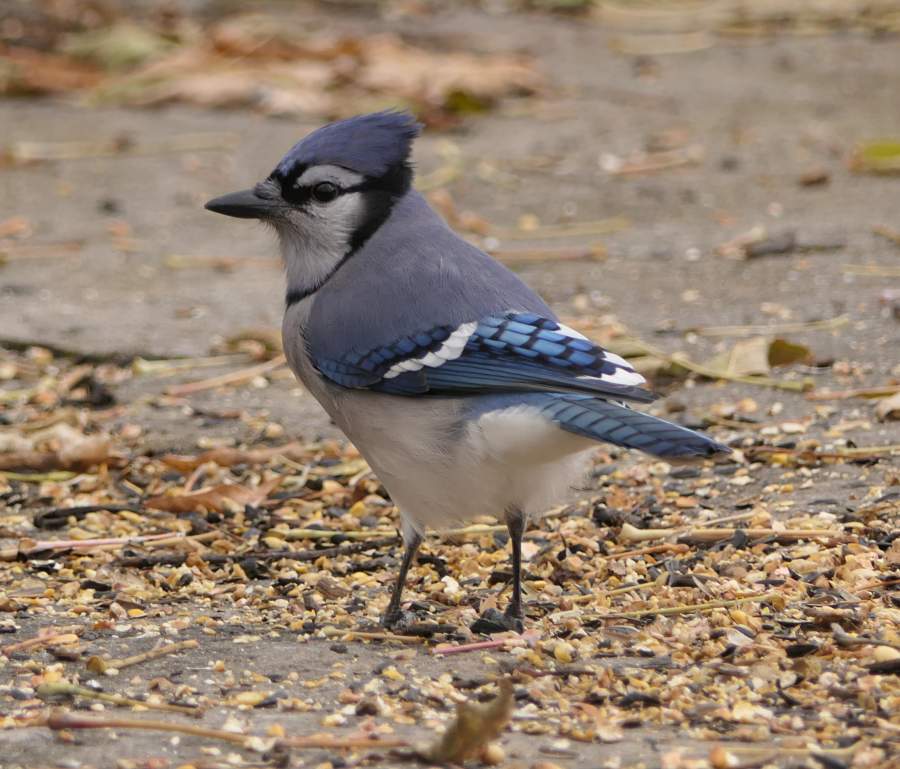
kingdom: Animalia
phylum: Chordata
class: Aves
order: Passeriformes
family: Corvidae
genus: Cyanocitta
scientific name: Cyanocitta cristata
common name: Blue jay
